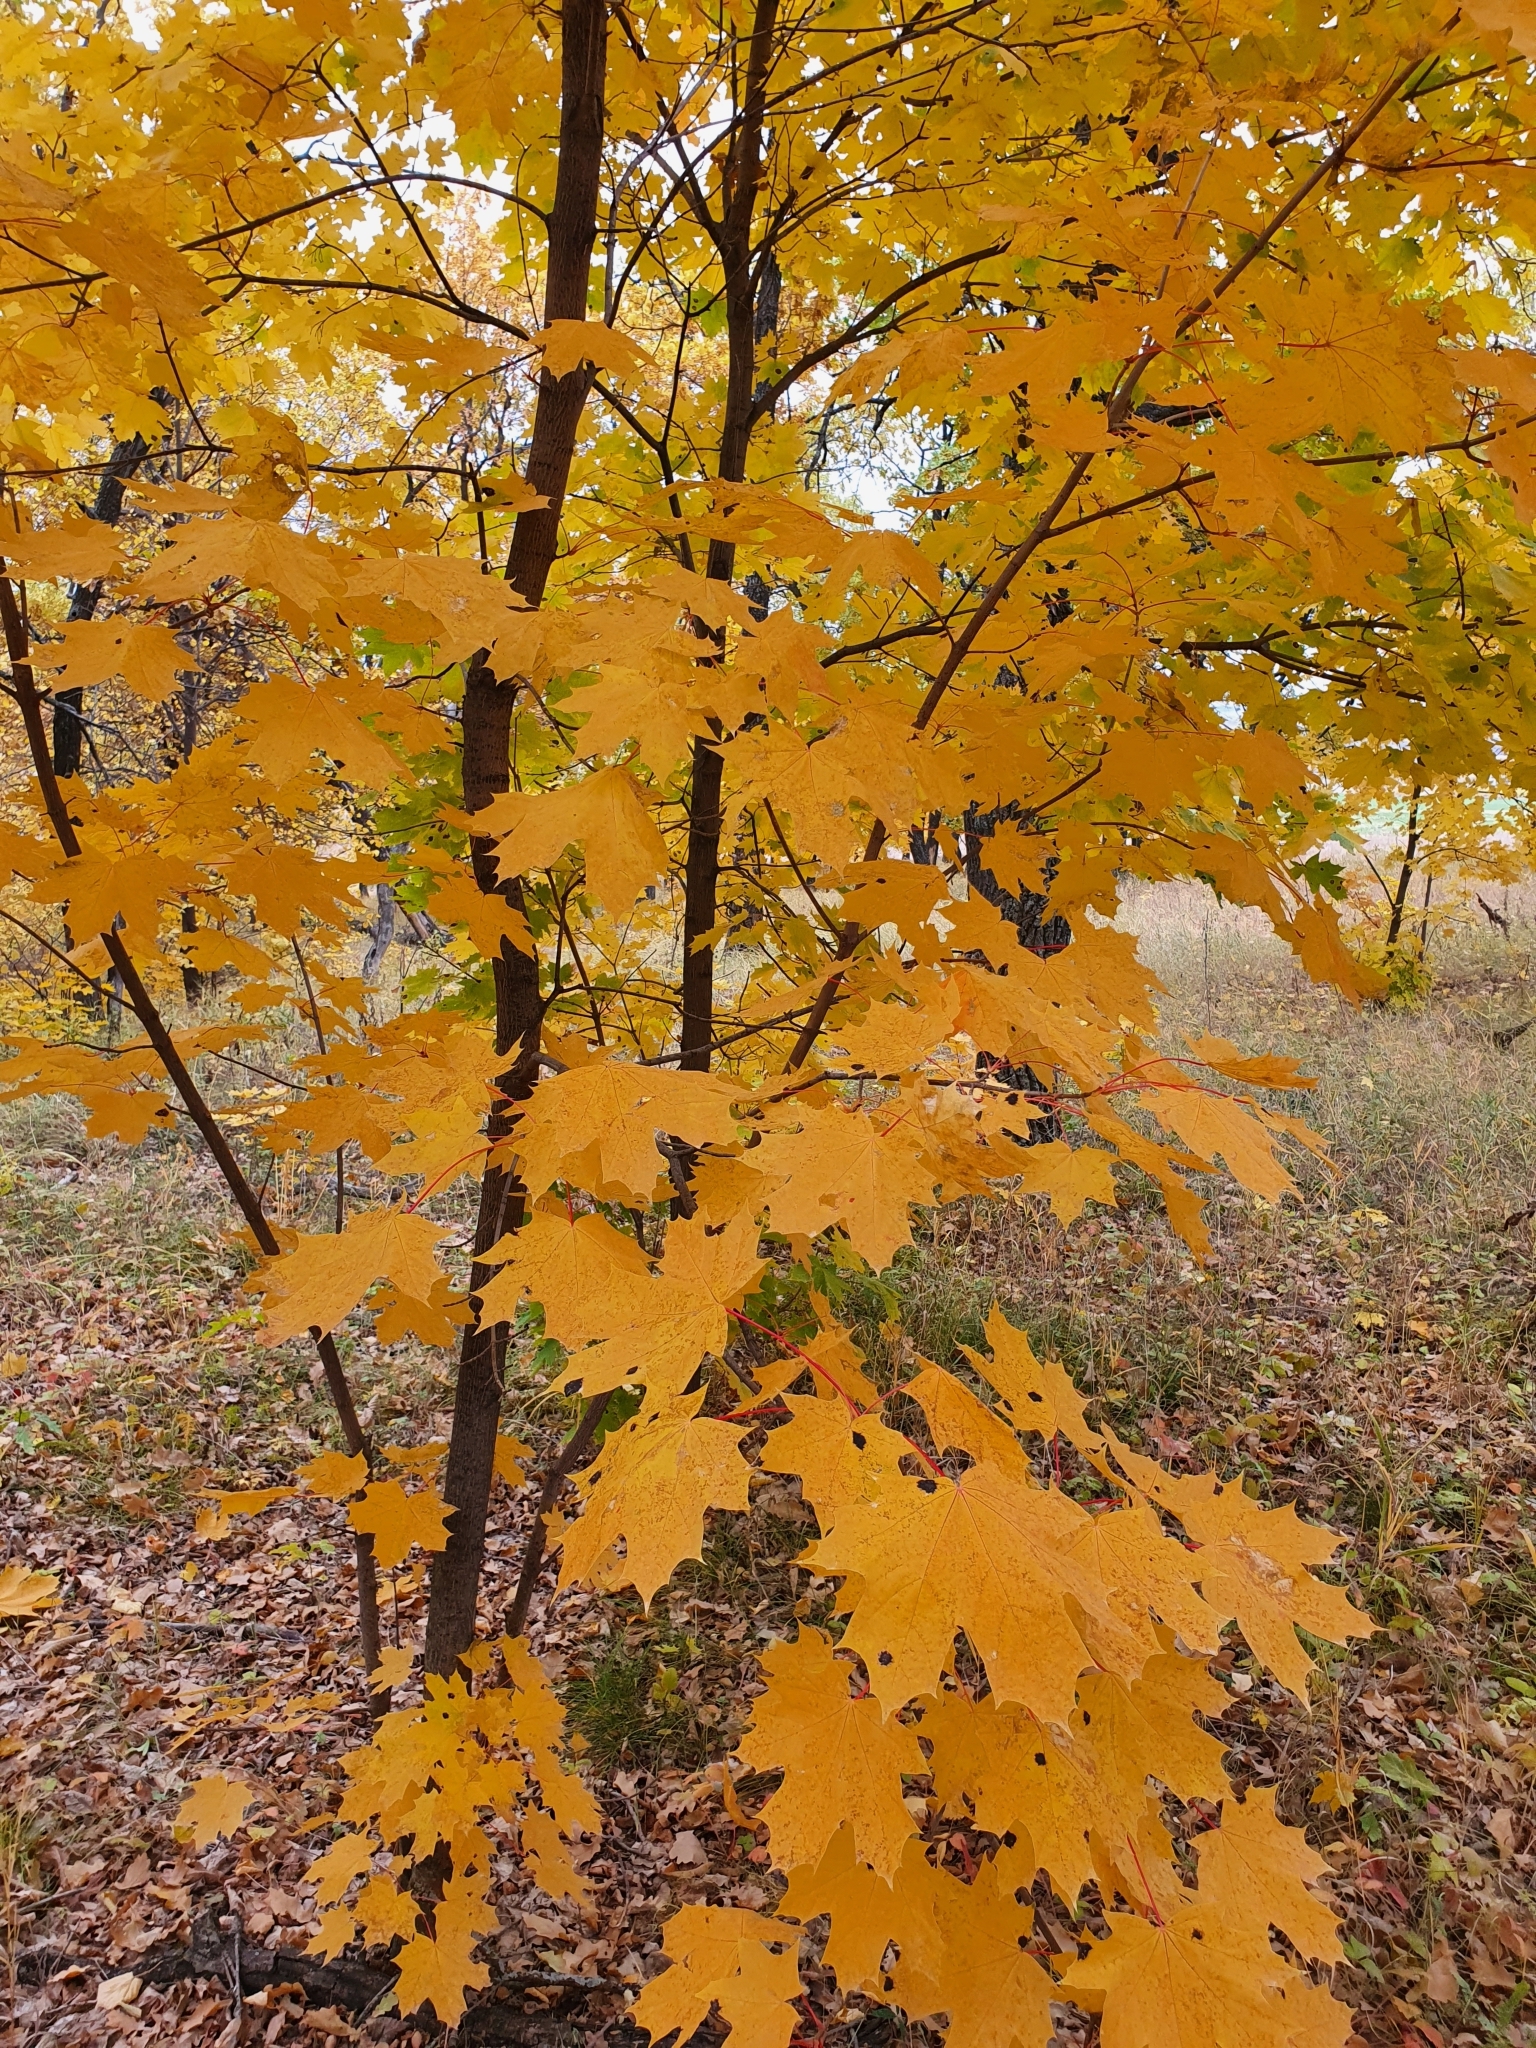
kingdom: Plantae
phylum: Tracheophyta
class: Magnoliopsida
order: Sapindales
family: Sapindaceae
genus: Acer
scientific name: Acer platanoides
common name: Norway maple
